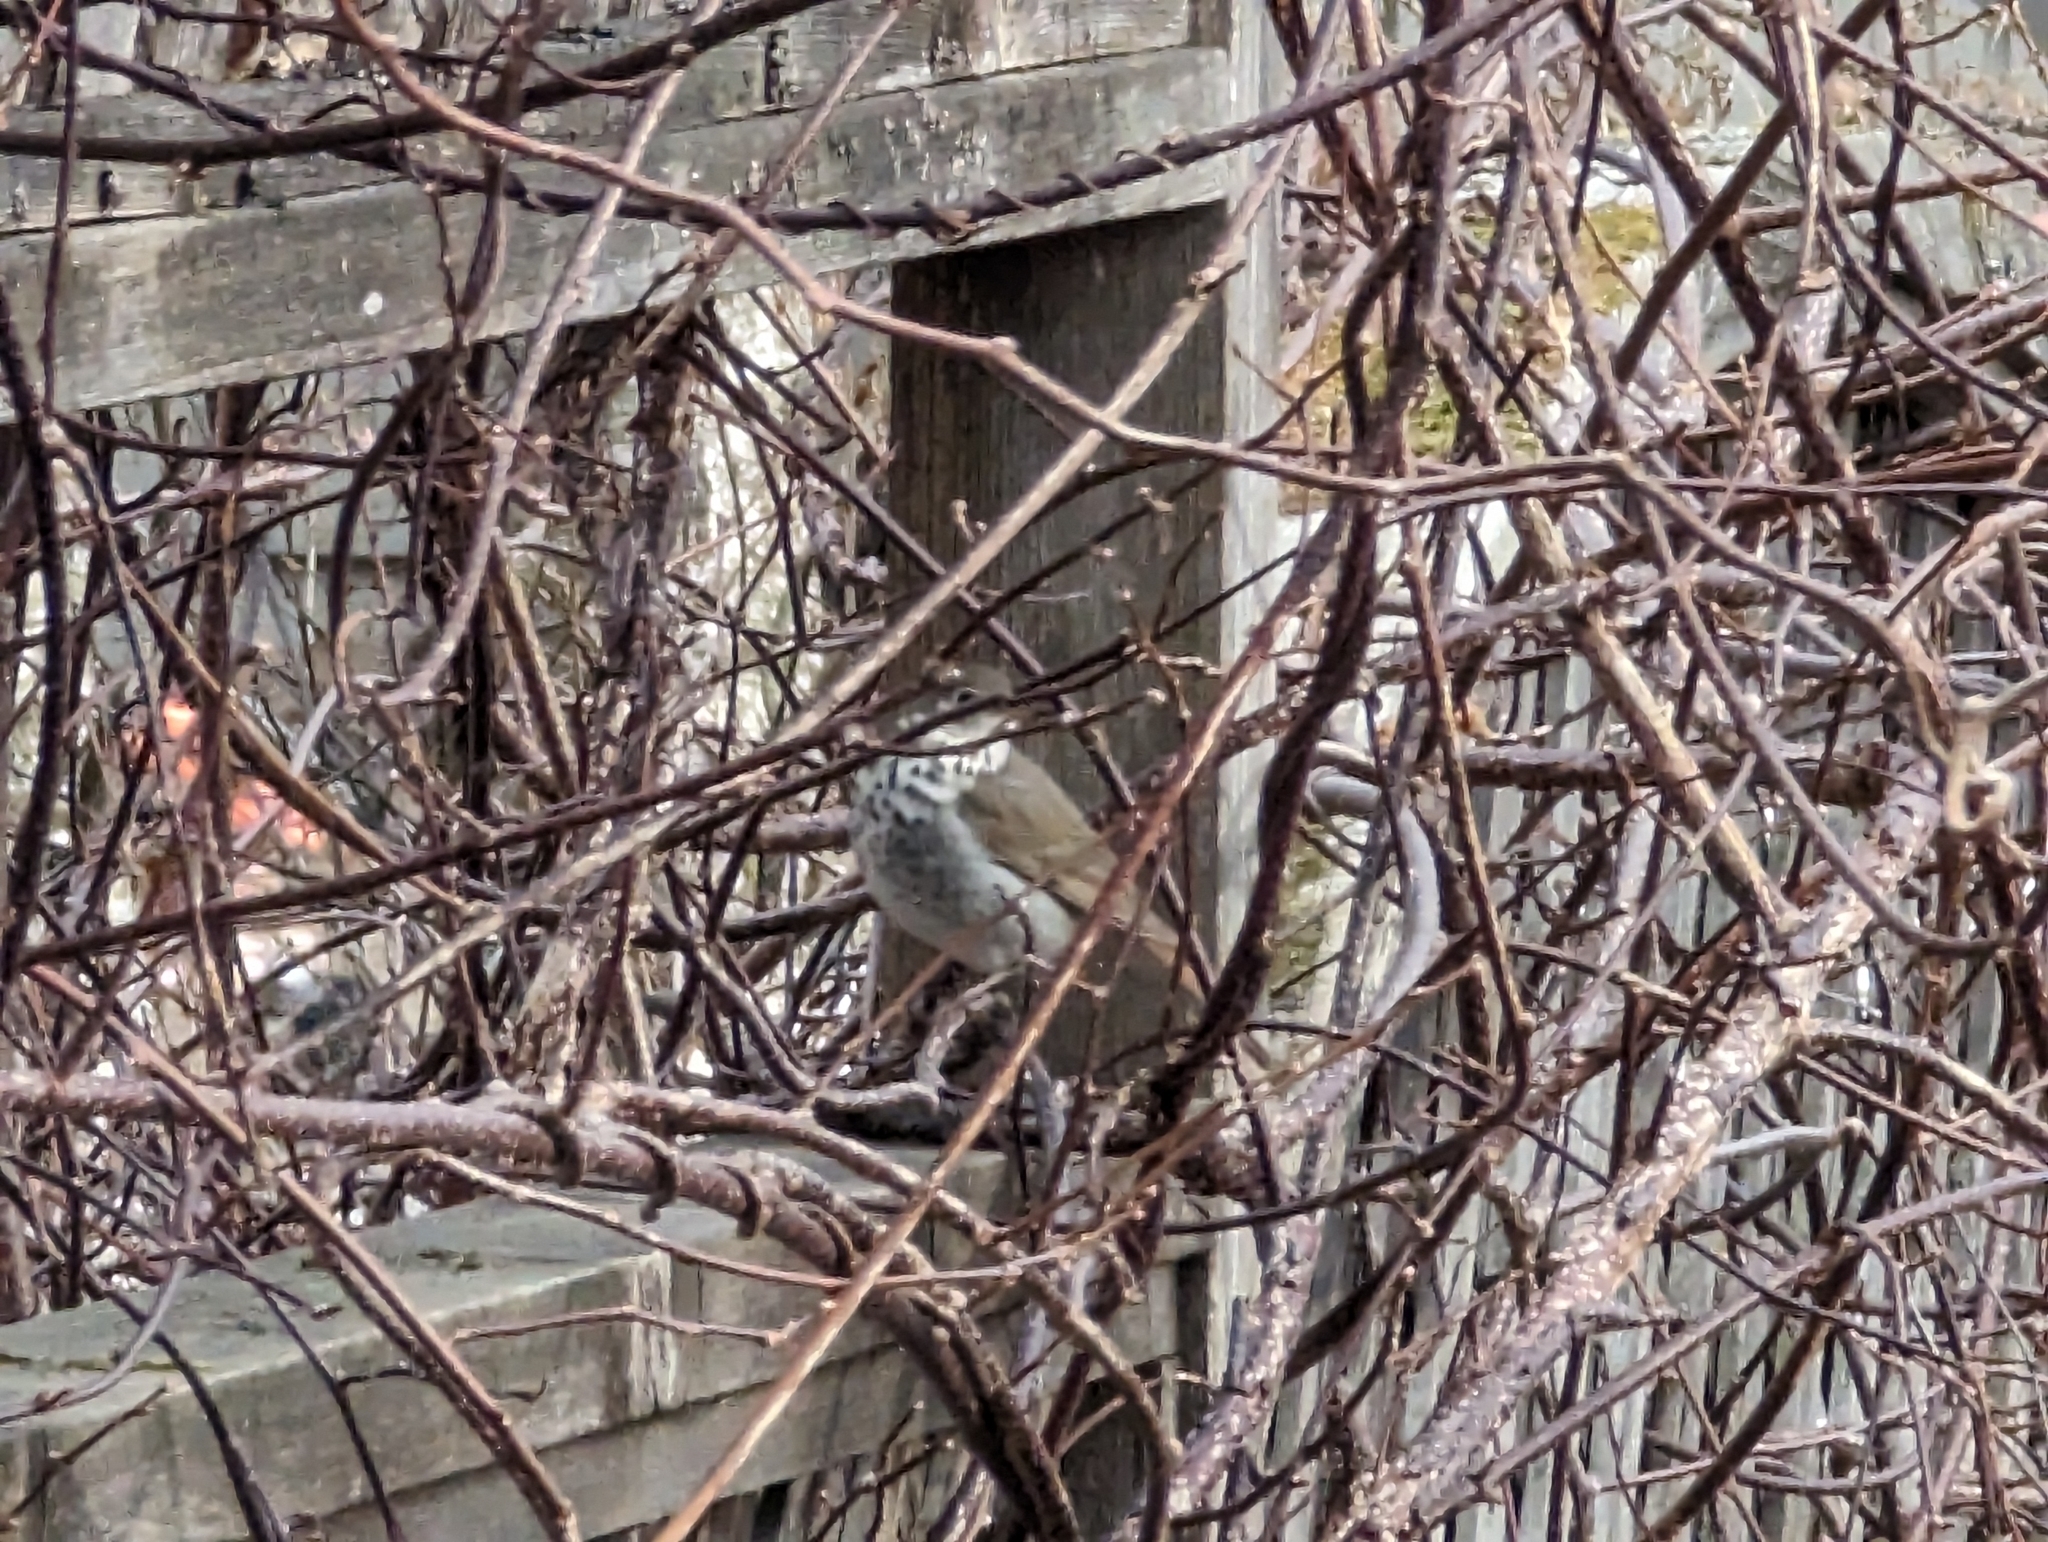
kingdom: Animalia
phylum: Chordata
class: Aves
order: Passeriformes
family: Turdidae
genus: Catharus
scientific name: Catharus guttatus
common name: Hermit thrush
